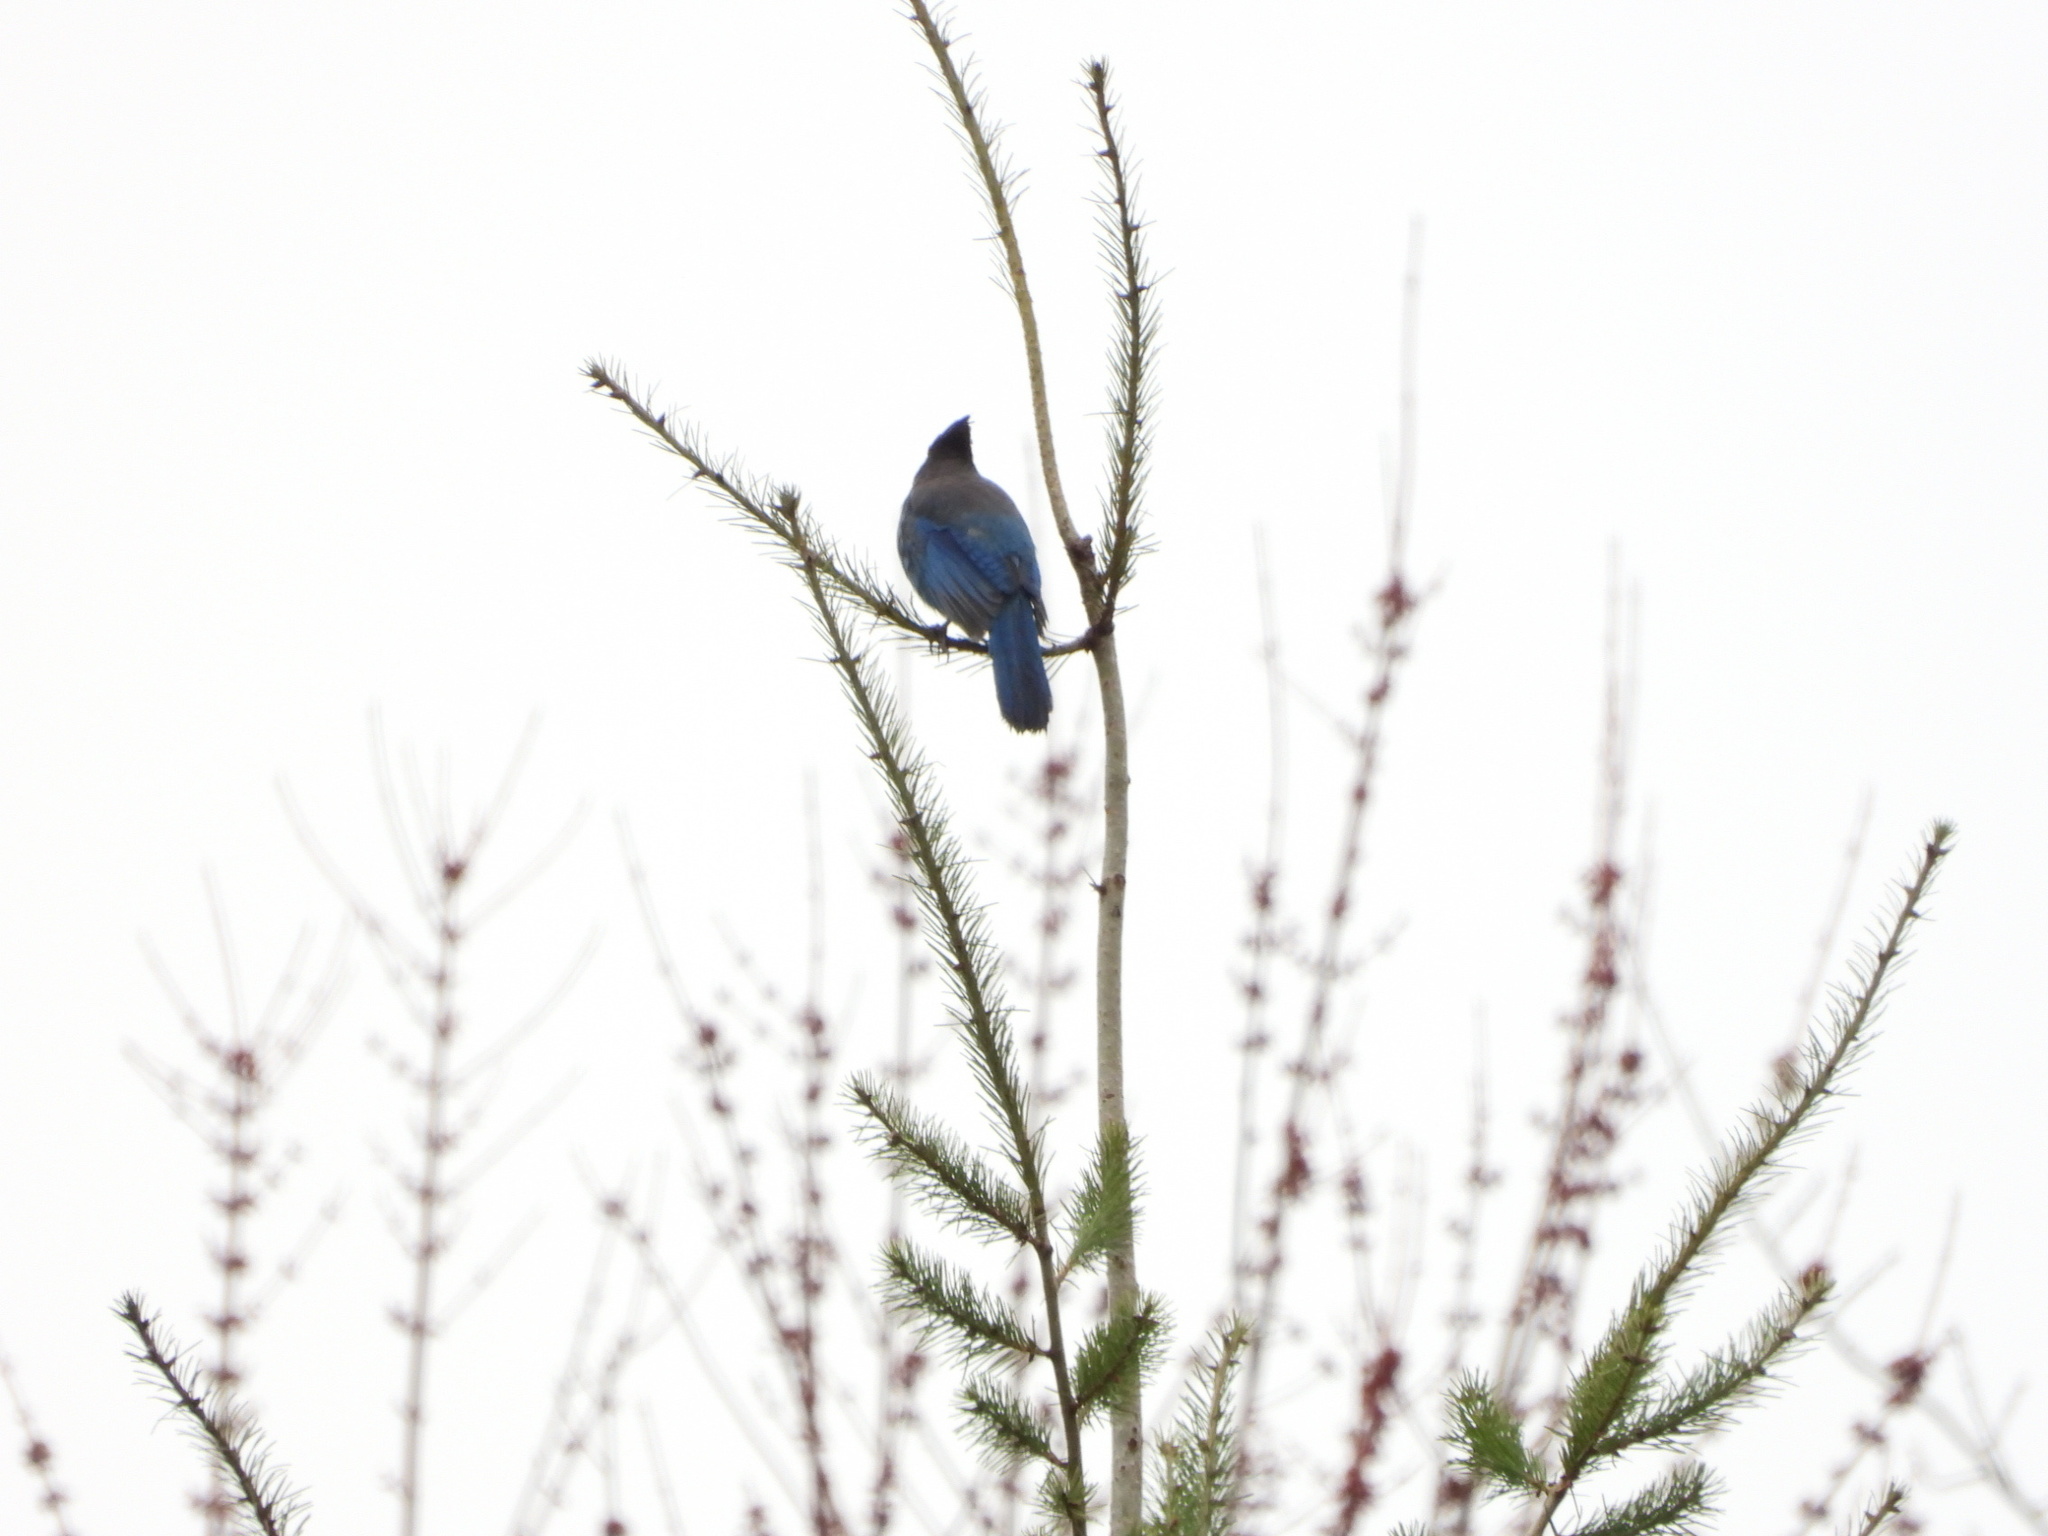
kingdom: Animalia
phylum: Chordata
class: Aves
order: Passeriformes
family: Corvidae
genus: Cyanocitta
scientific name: Cyanocitta stelleri
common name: Steller's jay
